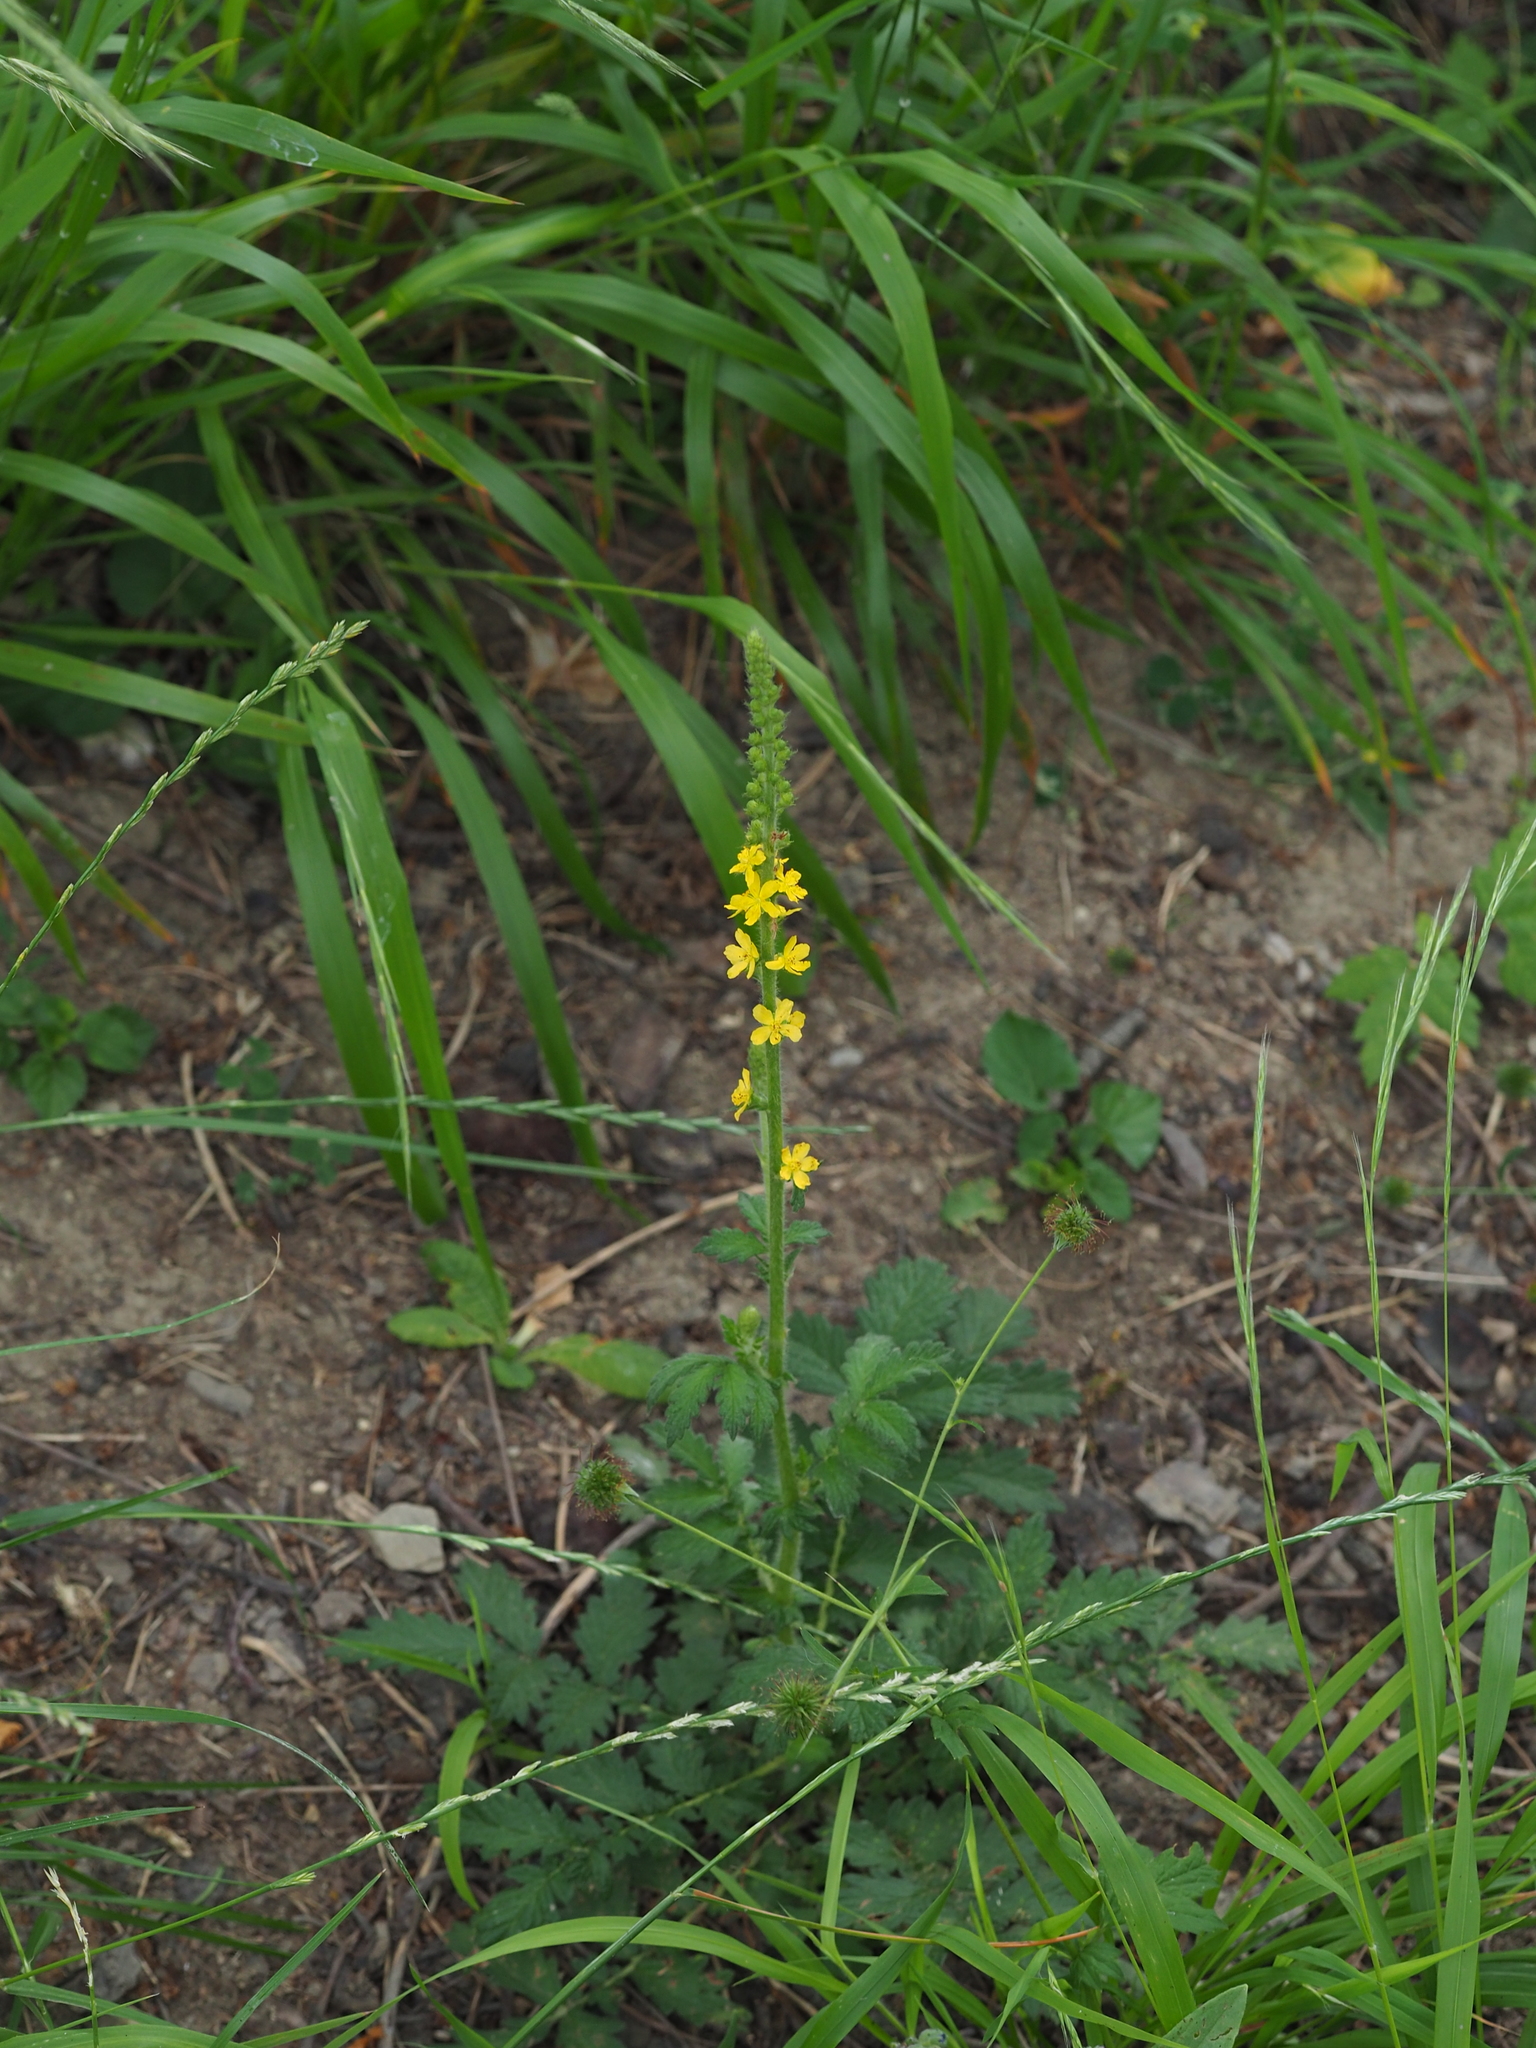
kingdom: Plantae
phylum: Tracheophyta
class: Magnoliopsida
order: Rosales
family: Rosaceae
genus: Agrimonia
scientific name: Agrimonia eupatoria
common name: Agrimony
